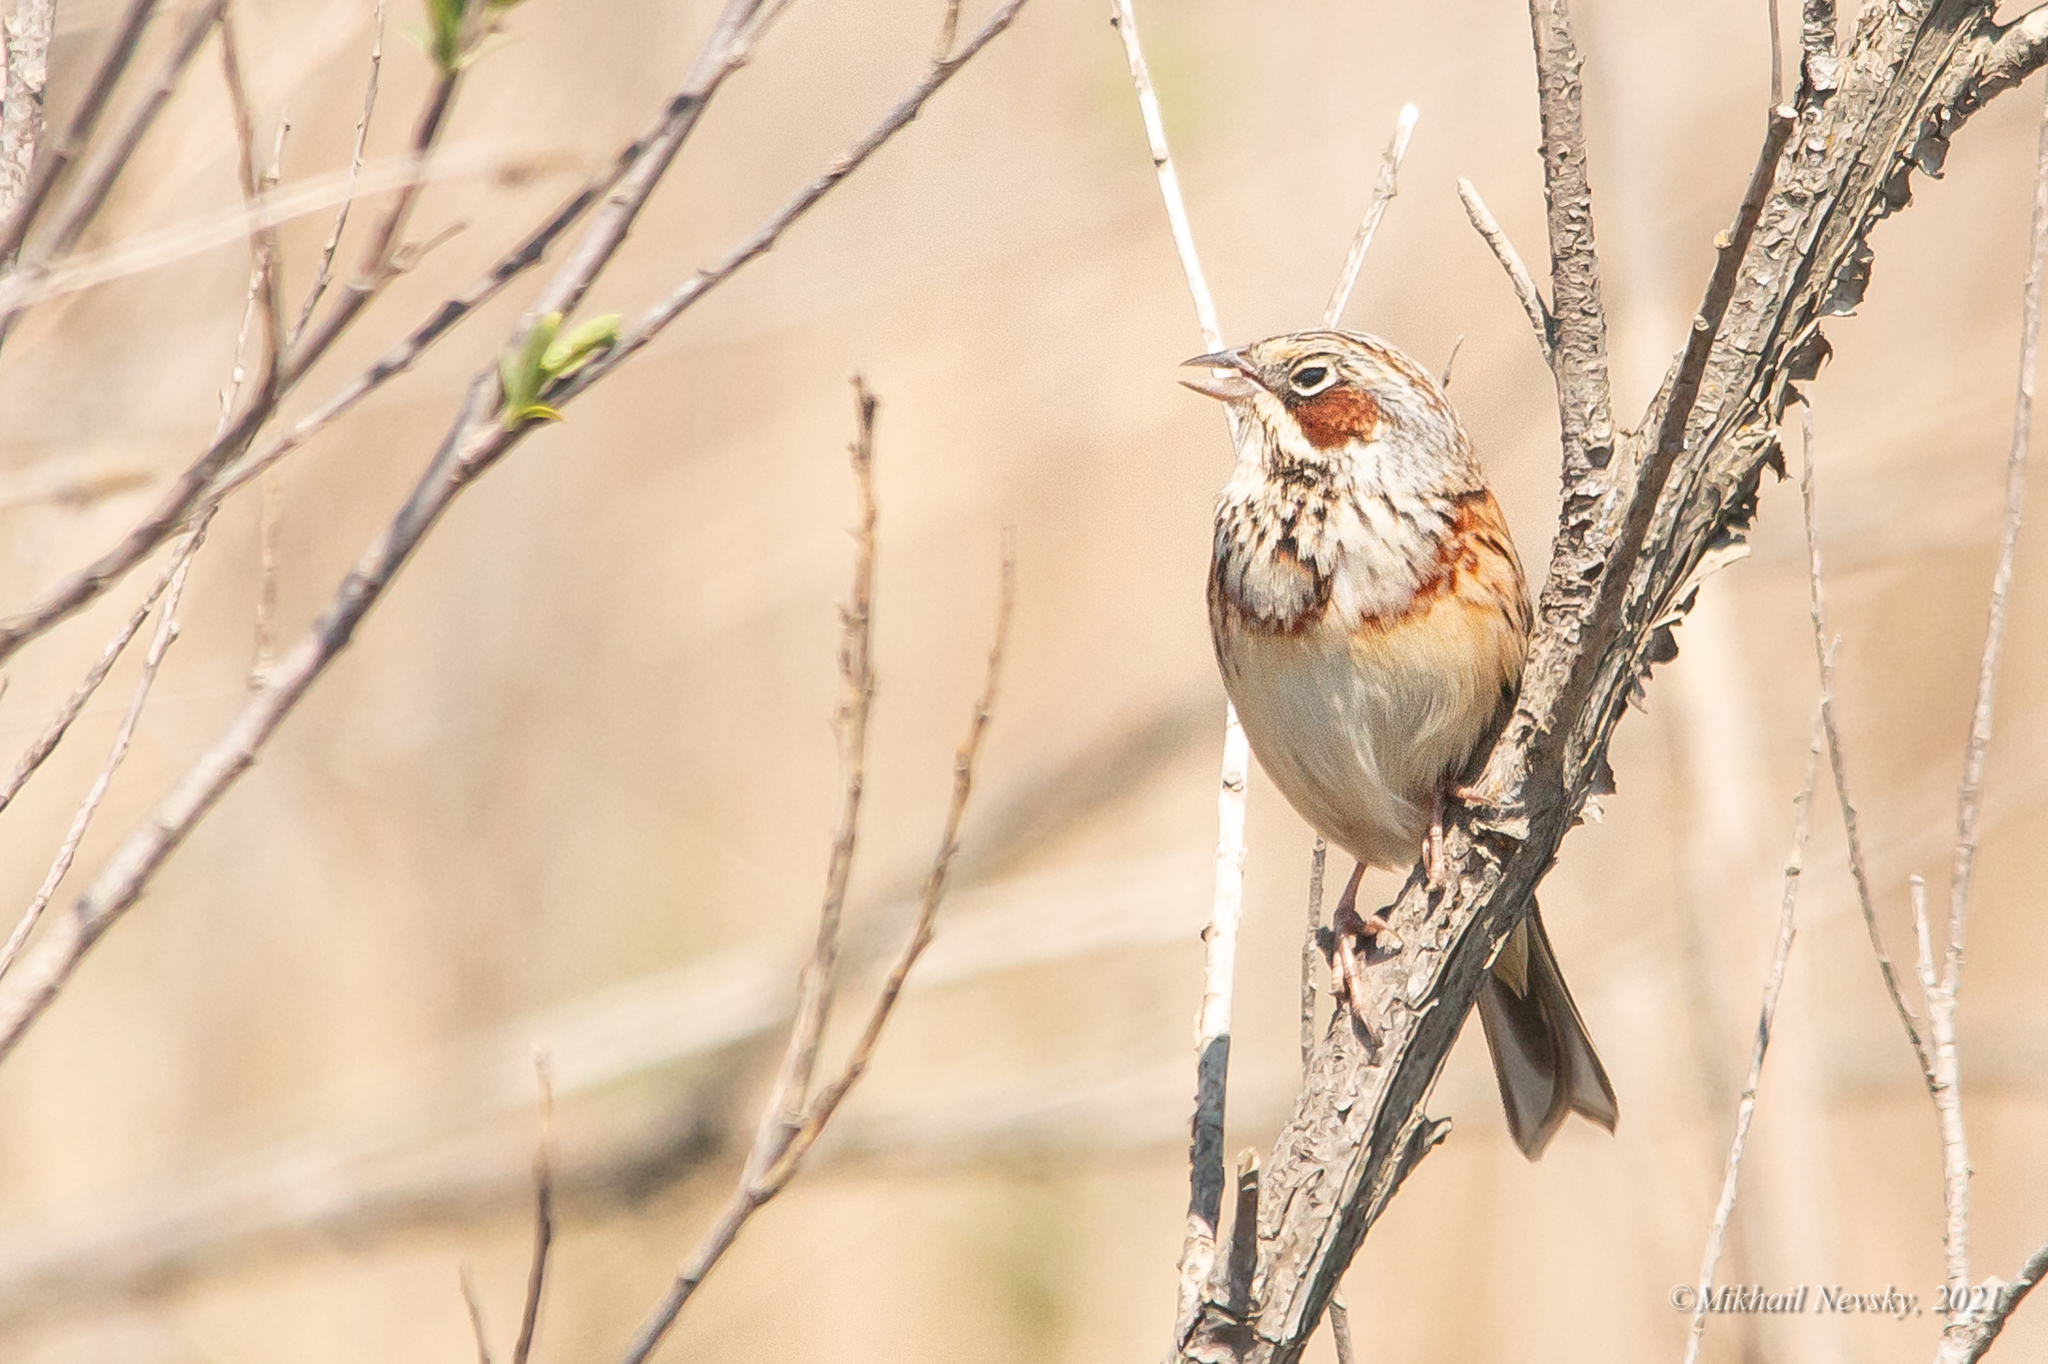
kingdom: Animalia
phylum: Chordata
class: Aves
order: Passeriformes
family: Emberizidae
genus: Emberiza
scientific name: Emberiza fucata
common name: Chestnut-eared bunting
